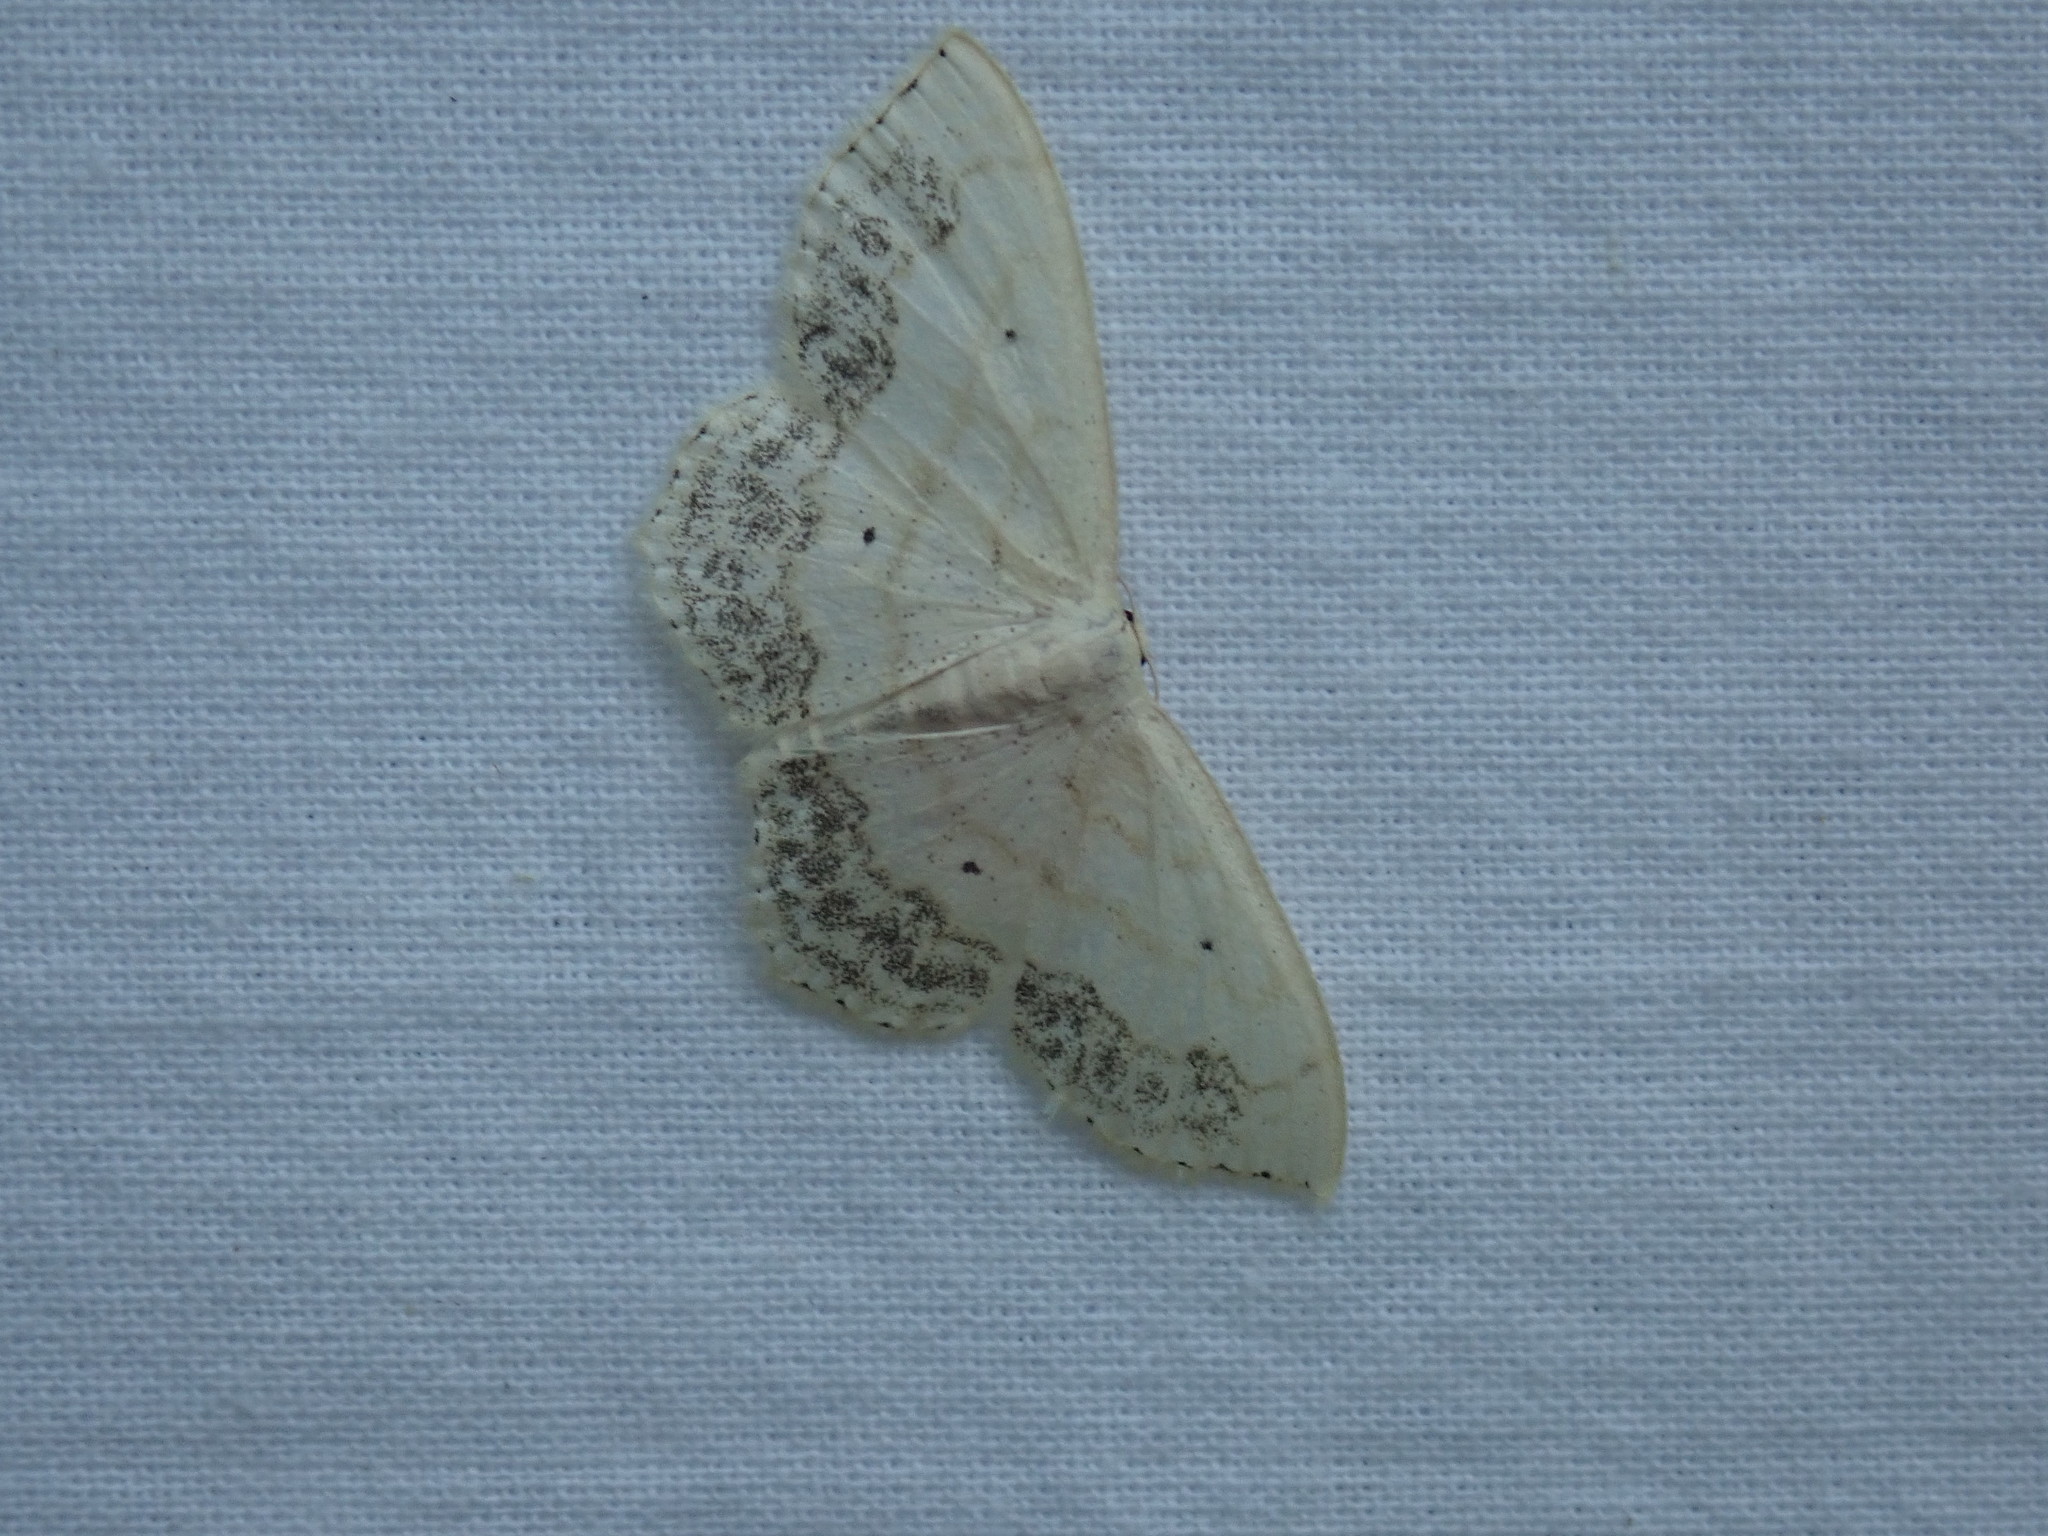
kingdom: Animalia
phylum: Arthropoda
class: Insecta
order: Lepidoptera
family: Geometridae
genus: Scopula
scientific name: Scopula limboundata
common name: Large lace border
